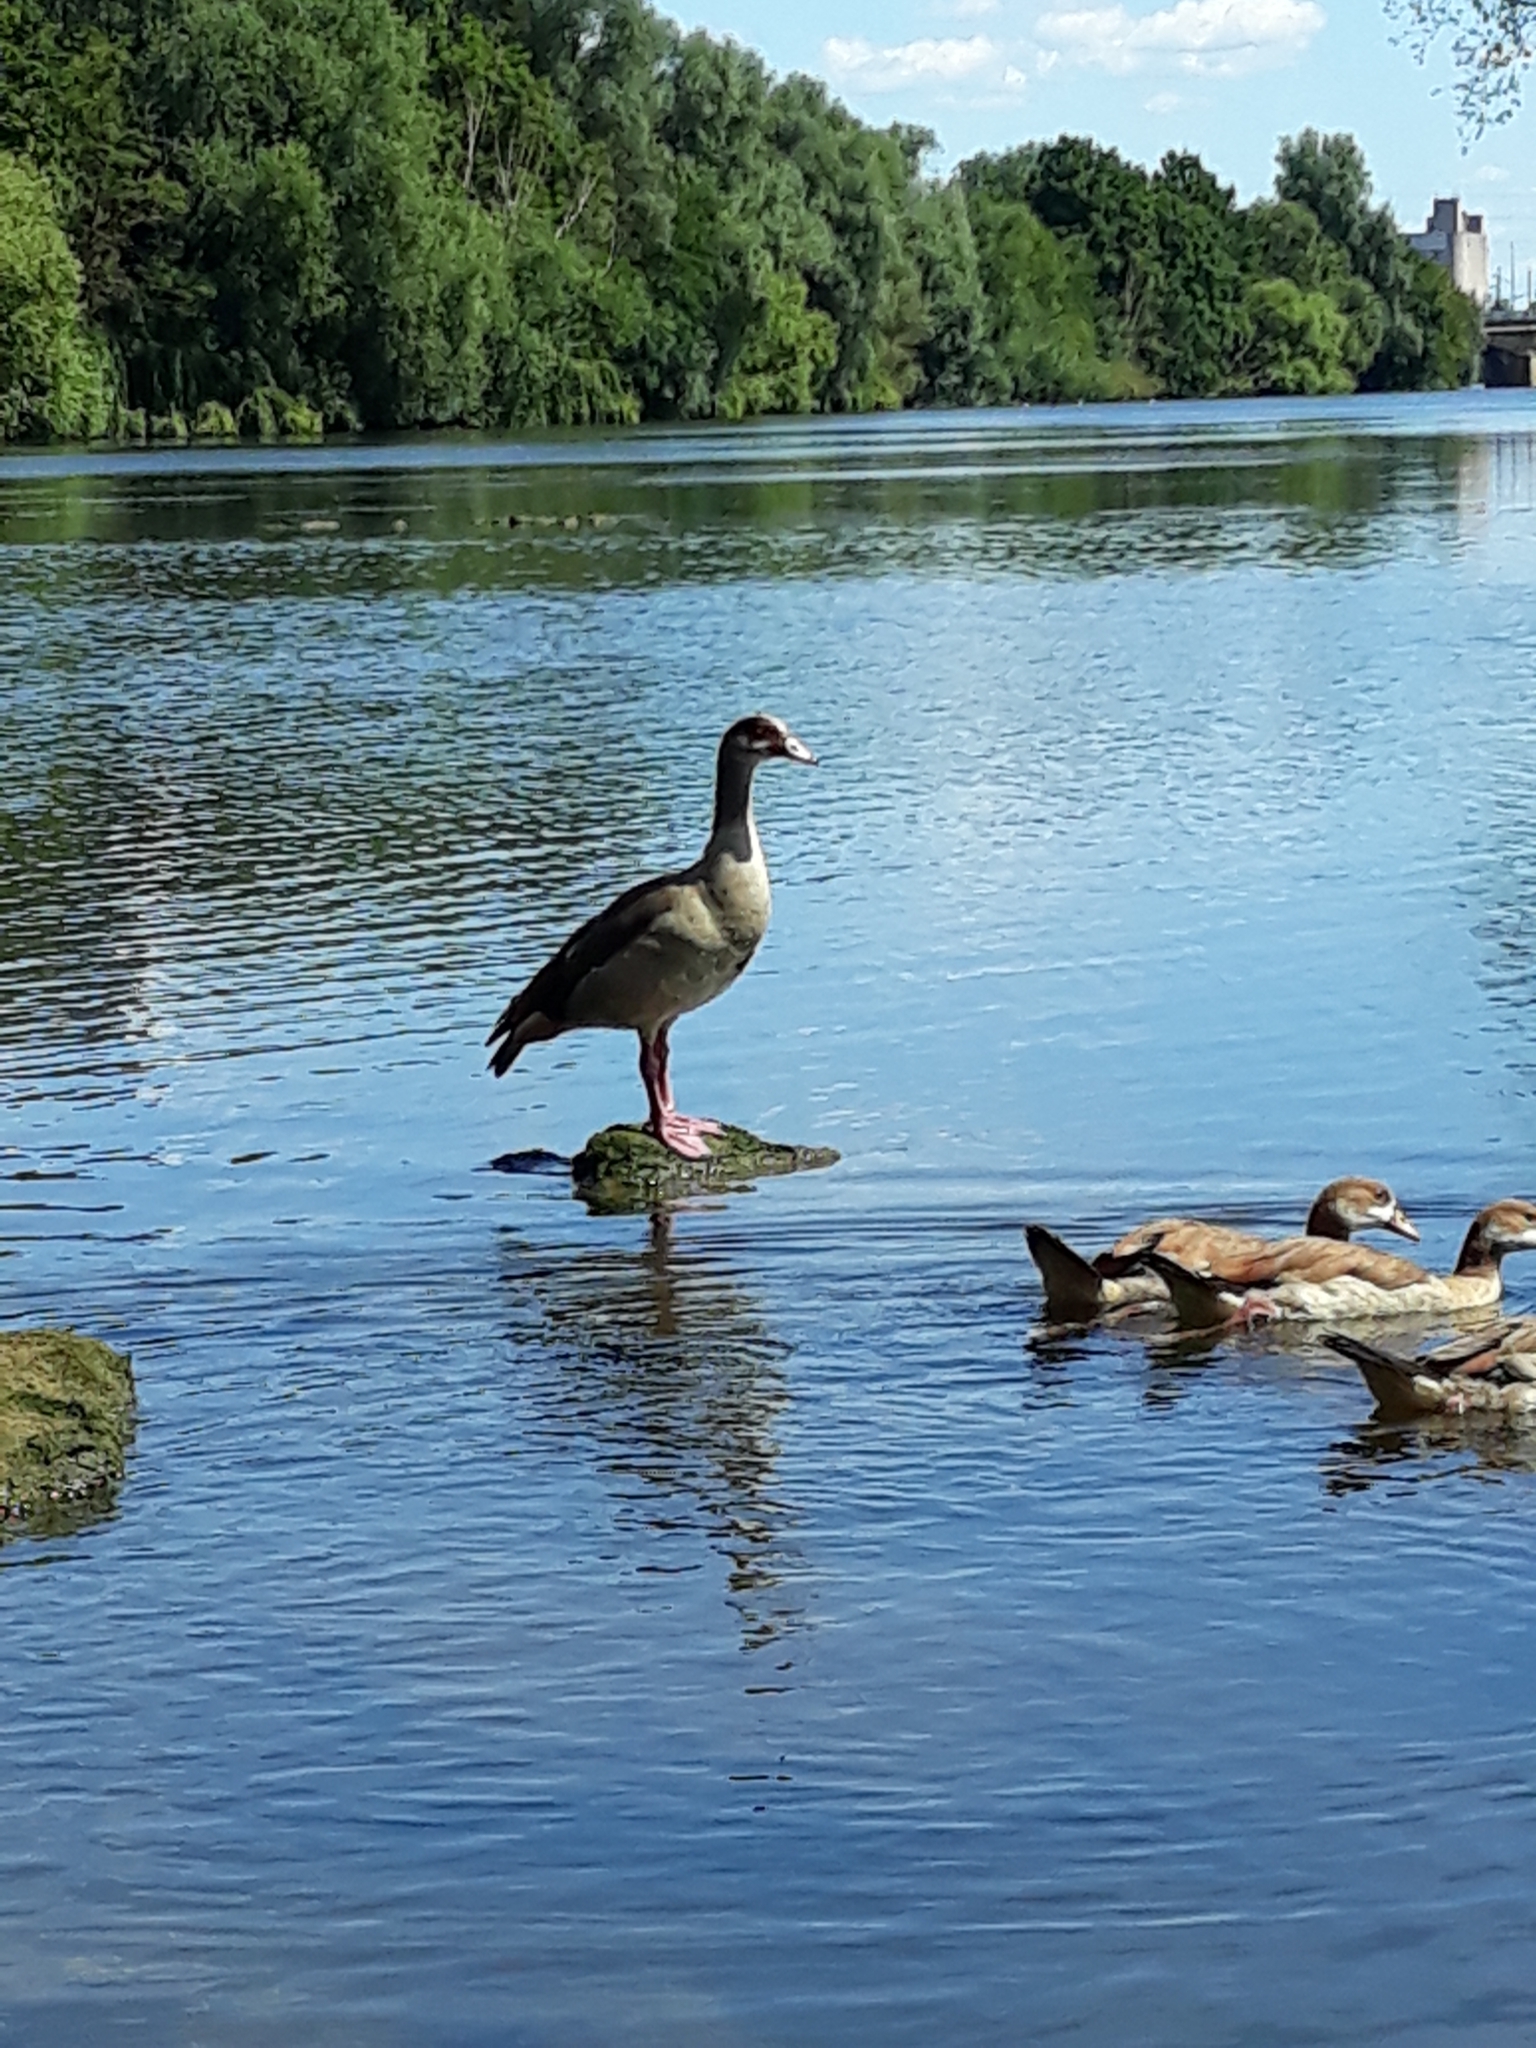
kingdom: Animalia
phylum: Chordata
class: Aves
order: Anseriformes
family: Anatidae
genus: Alopochen
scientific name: Alopochen aegyptiaca
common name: Egyptian goose
